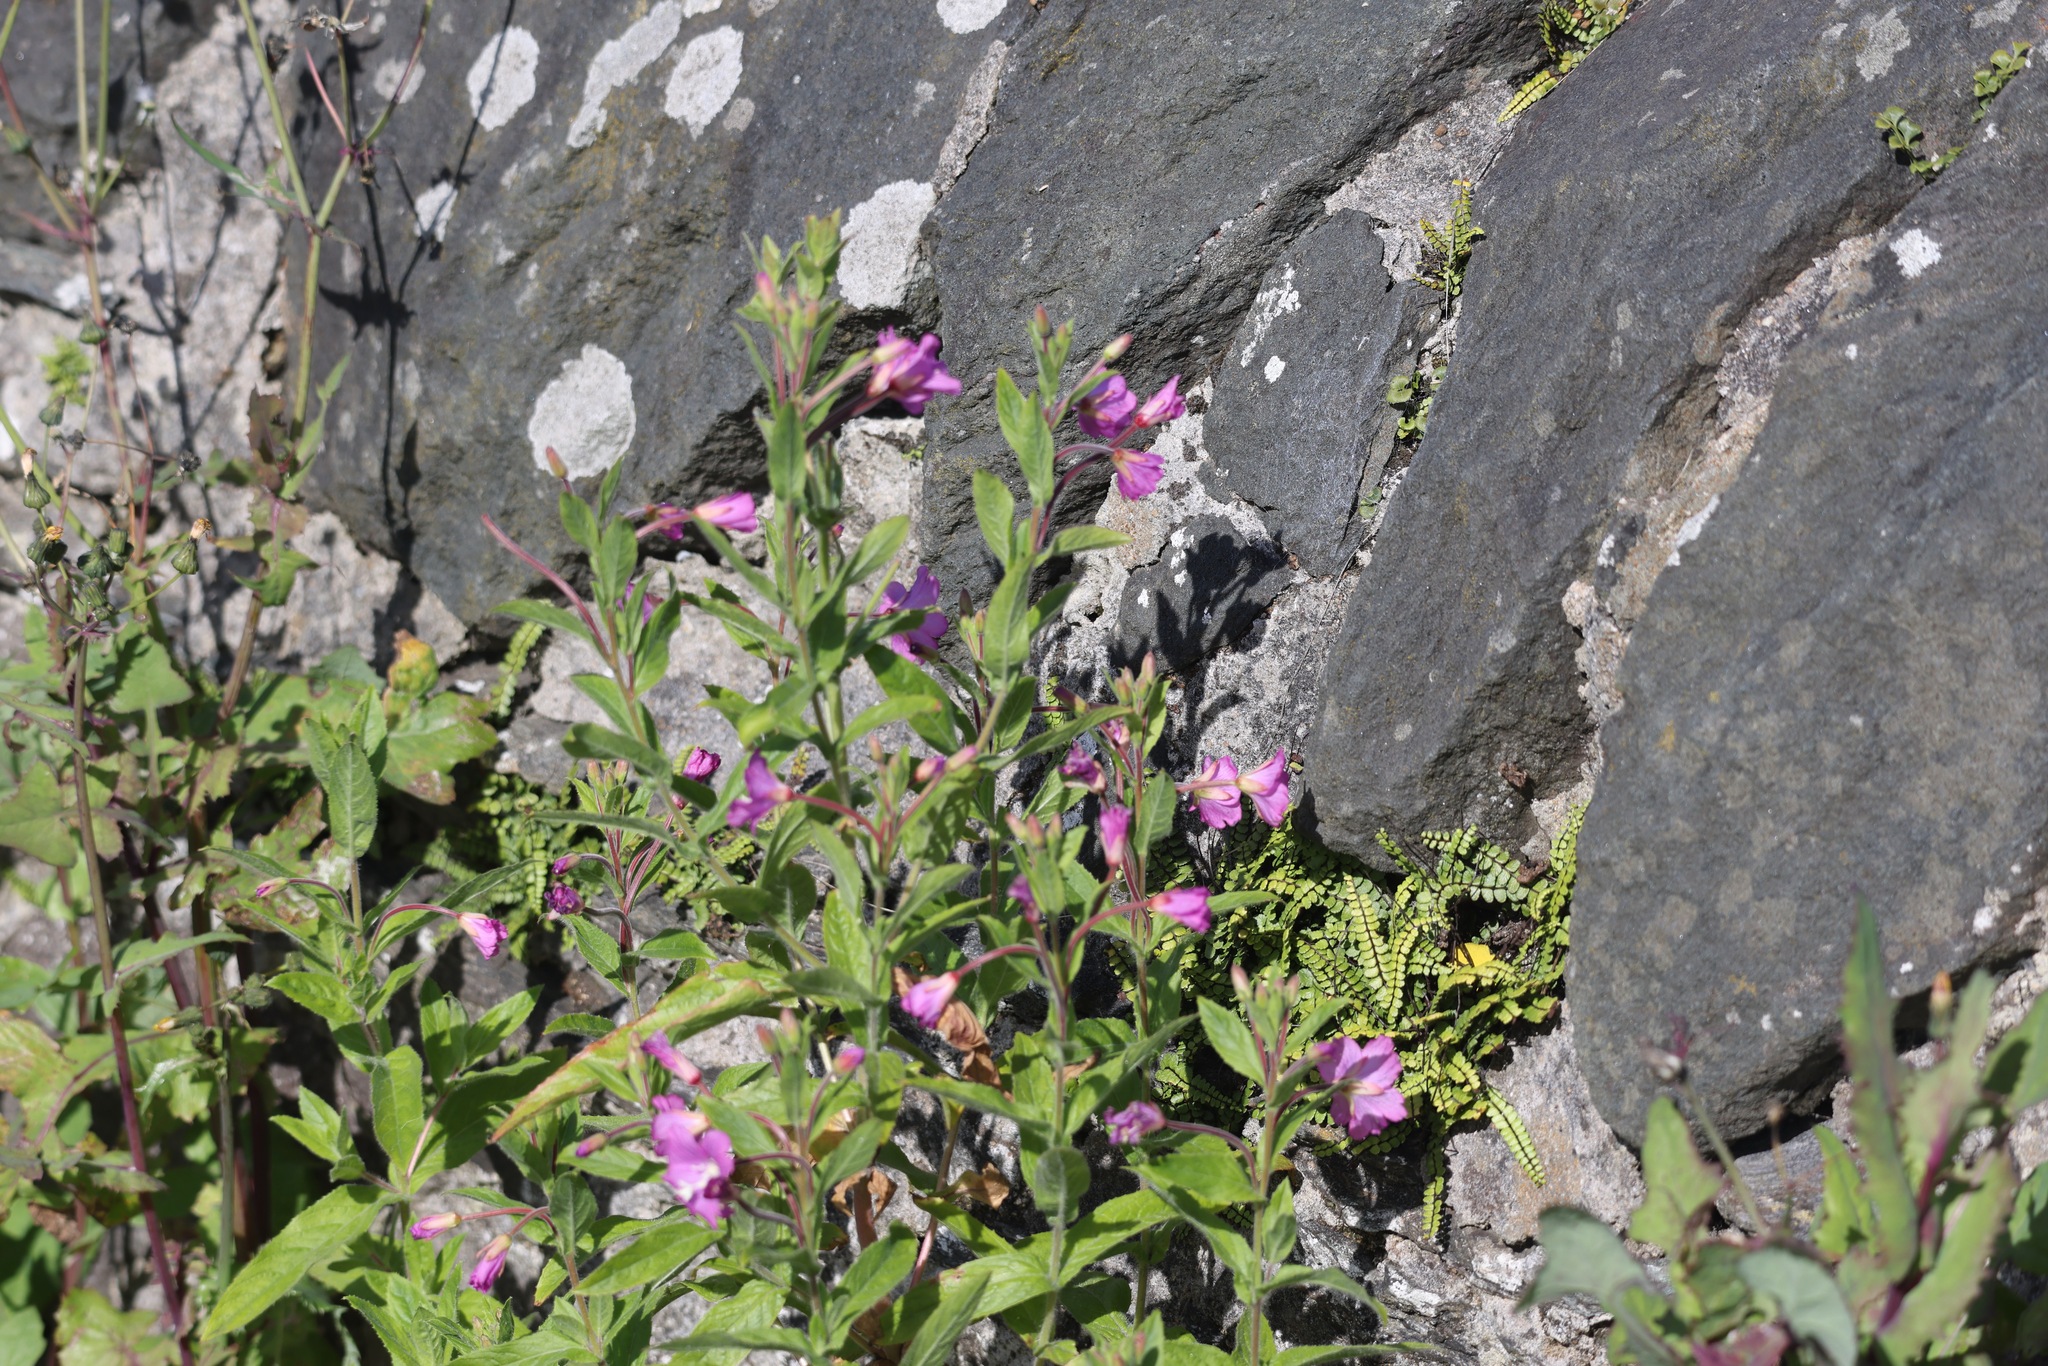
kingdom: Plantae
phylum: Tracheophyta
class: Magnoliopsida
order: Myrtales
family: Onagraceae
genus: Epilobium
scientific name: Epilobium hirsutum
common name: Great willowherb
